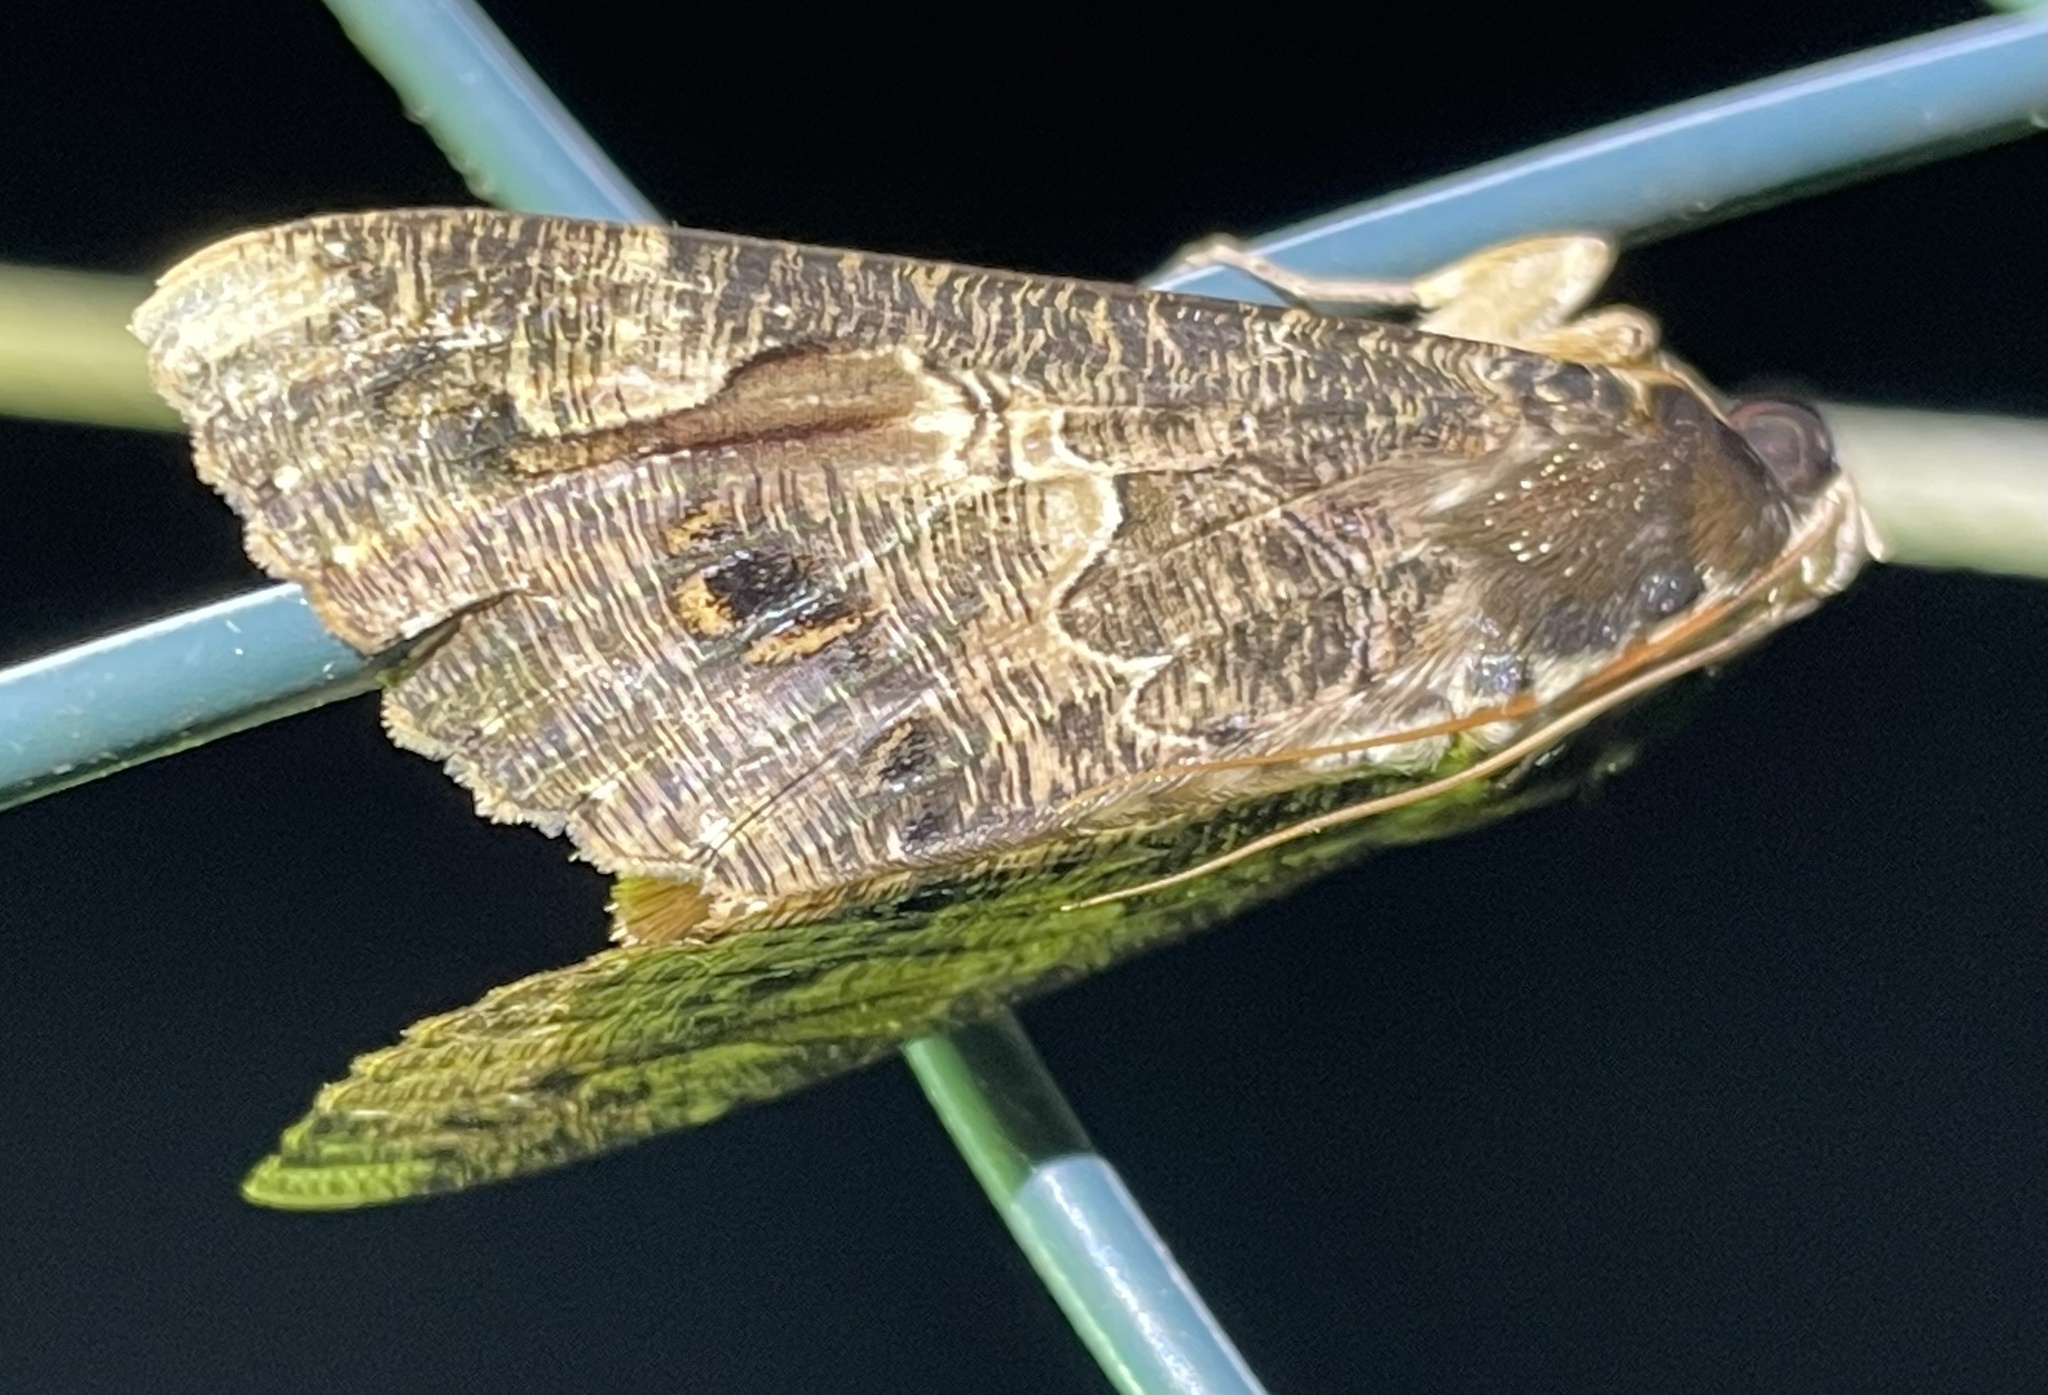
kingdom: Animalia
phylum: Arthropoda
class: Insecta
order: Lepidoptera
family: Erebidae
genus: Sphingomorpha
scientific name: Sphingomorpha chlorea
